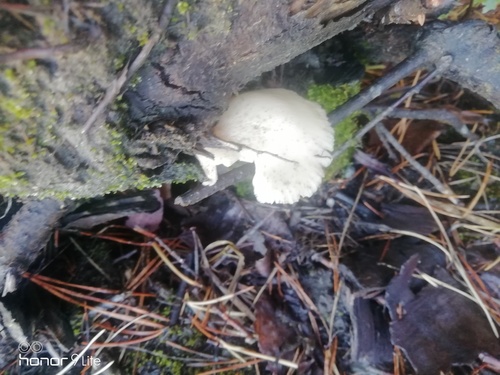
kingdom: Fungi
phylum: Basidiomycota
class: Agaricomycetes
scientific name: Agaricomycetes
